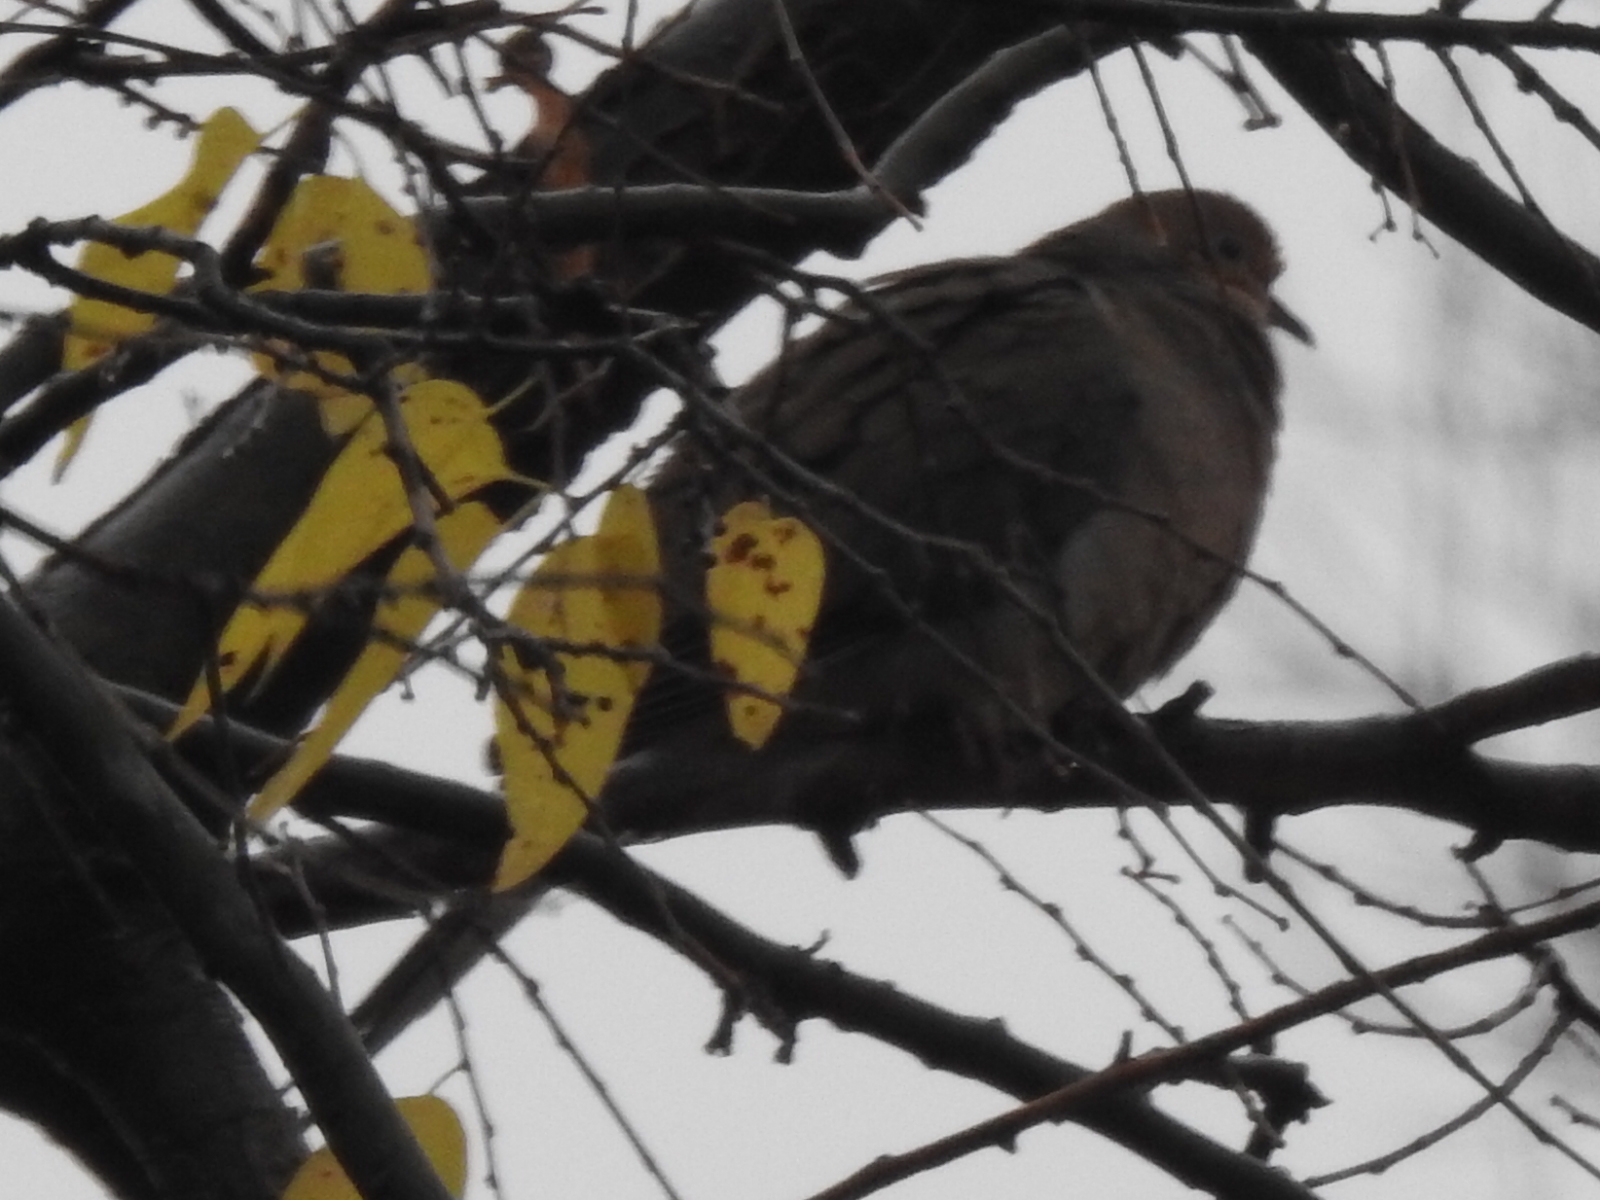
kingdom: Animalia
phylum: Chordata
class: Aves
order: Columbiformes
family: Columbidae
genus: Zenaida
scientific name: Zenaida macroura
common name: Mourning dove
